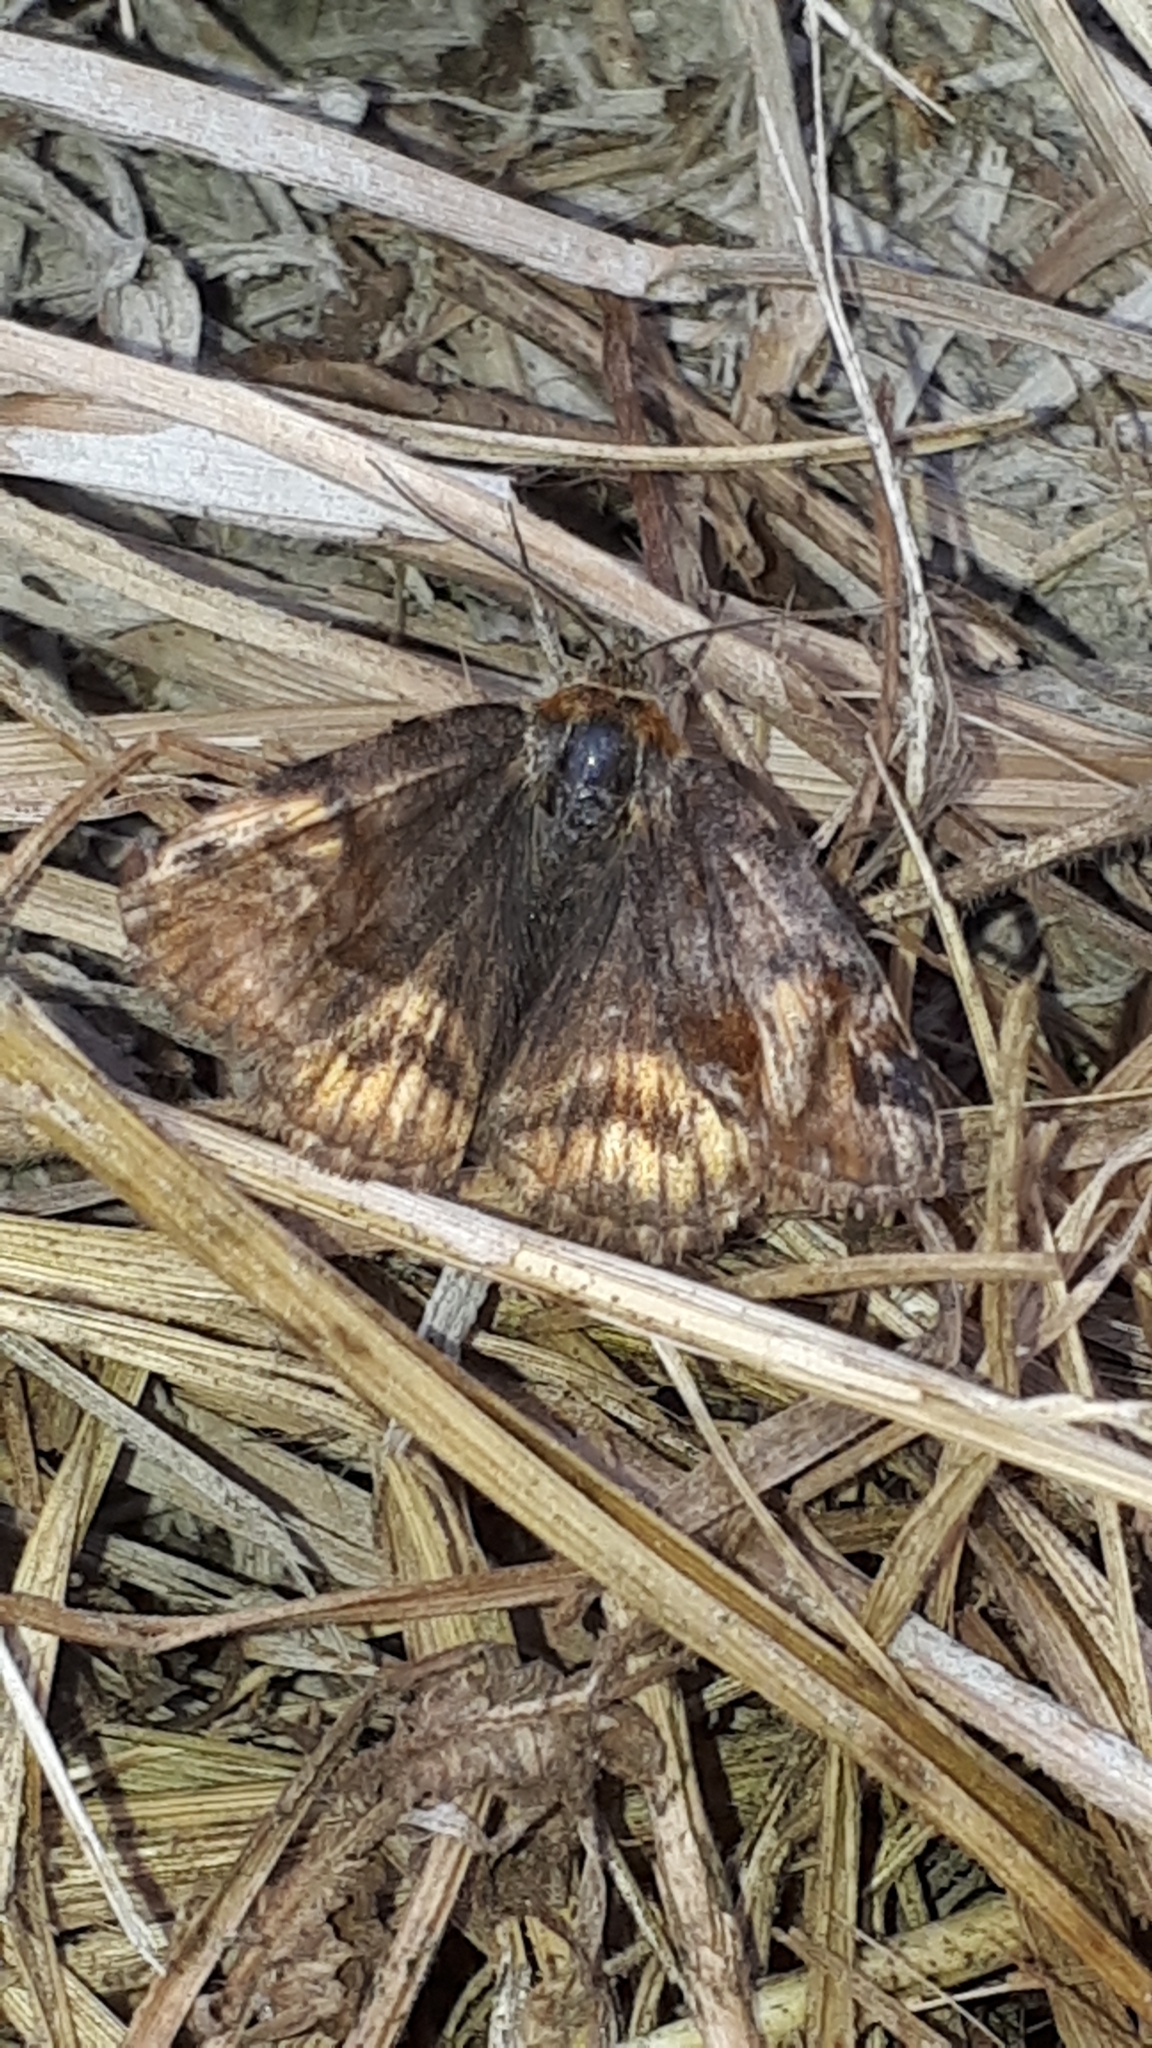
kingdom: Animalia
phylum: Arthropoda
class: Insecta
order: Lepidoptera
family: Erebidae
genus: Euclidia
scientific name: Euclidia glyphica
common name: Burnet companion
